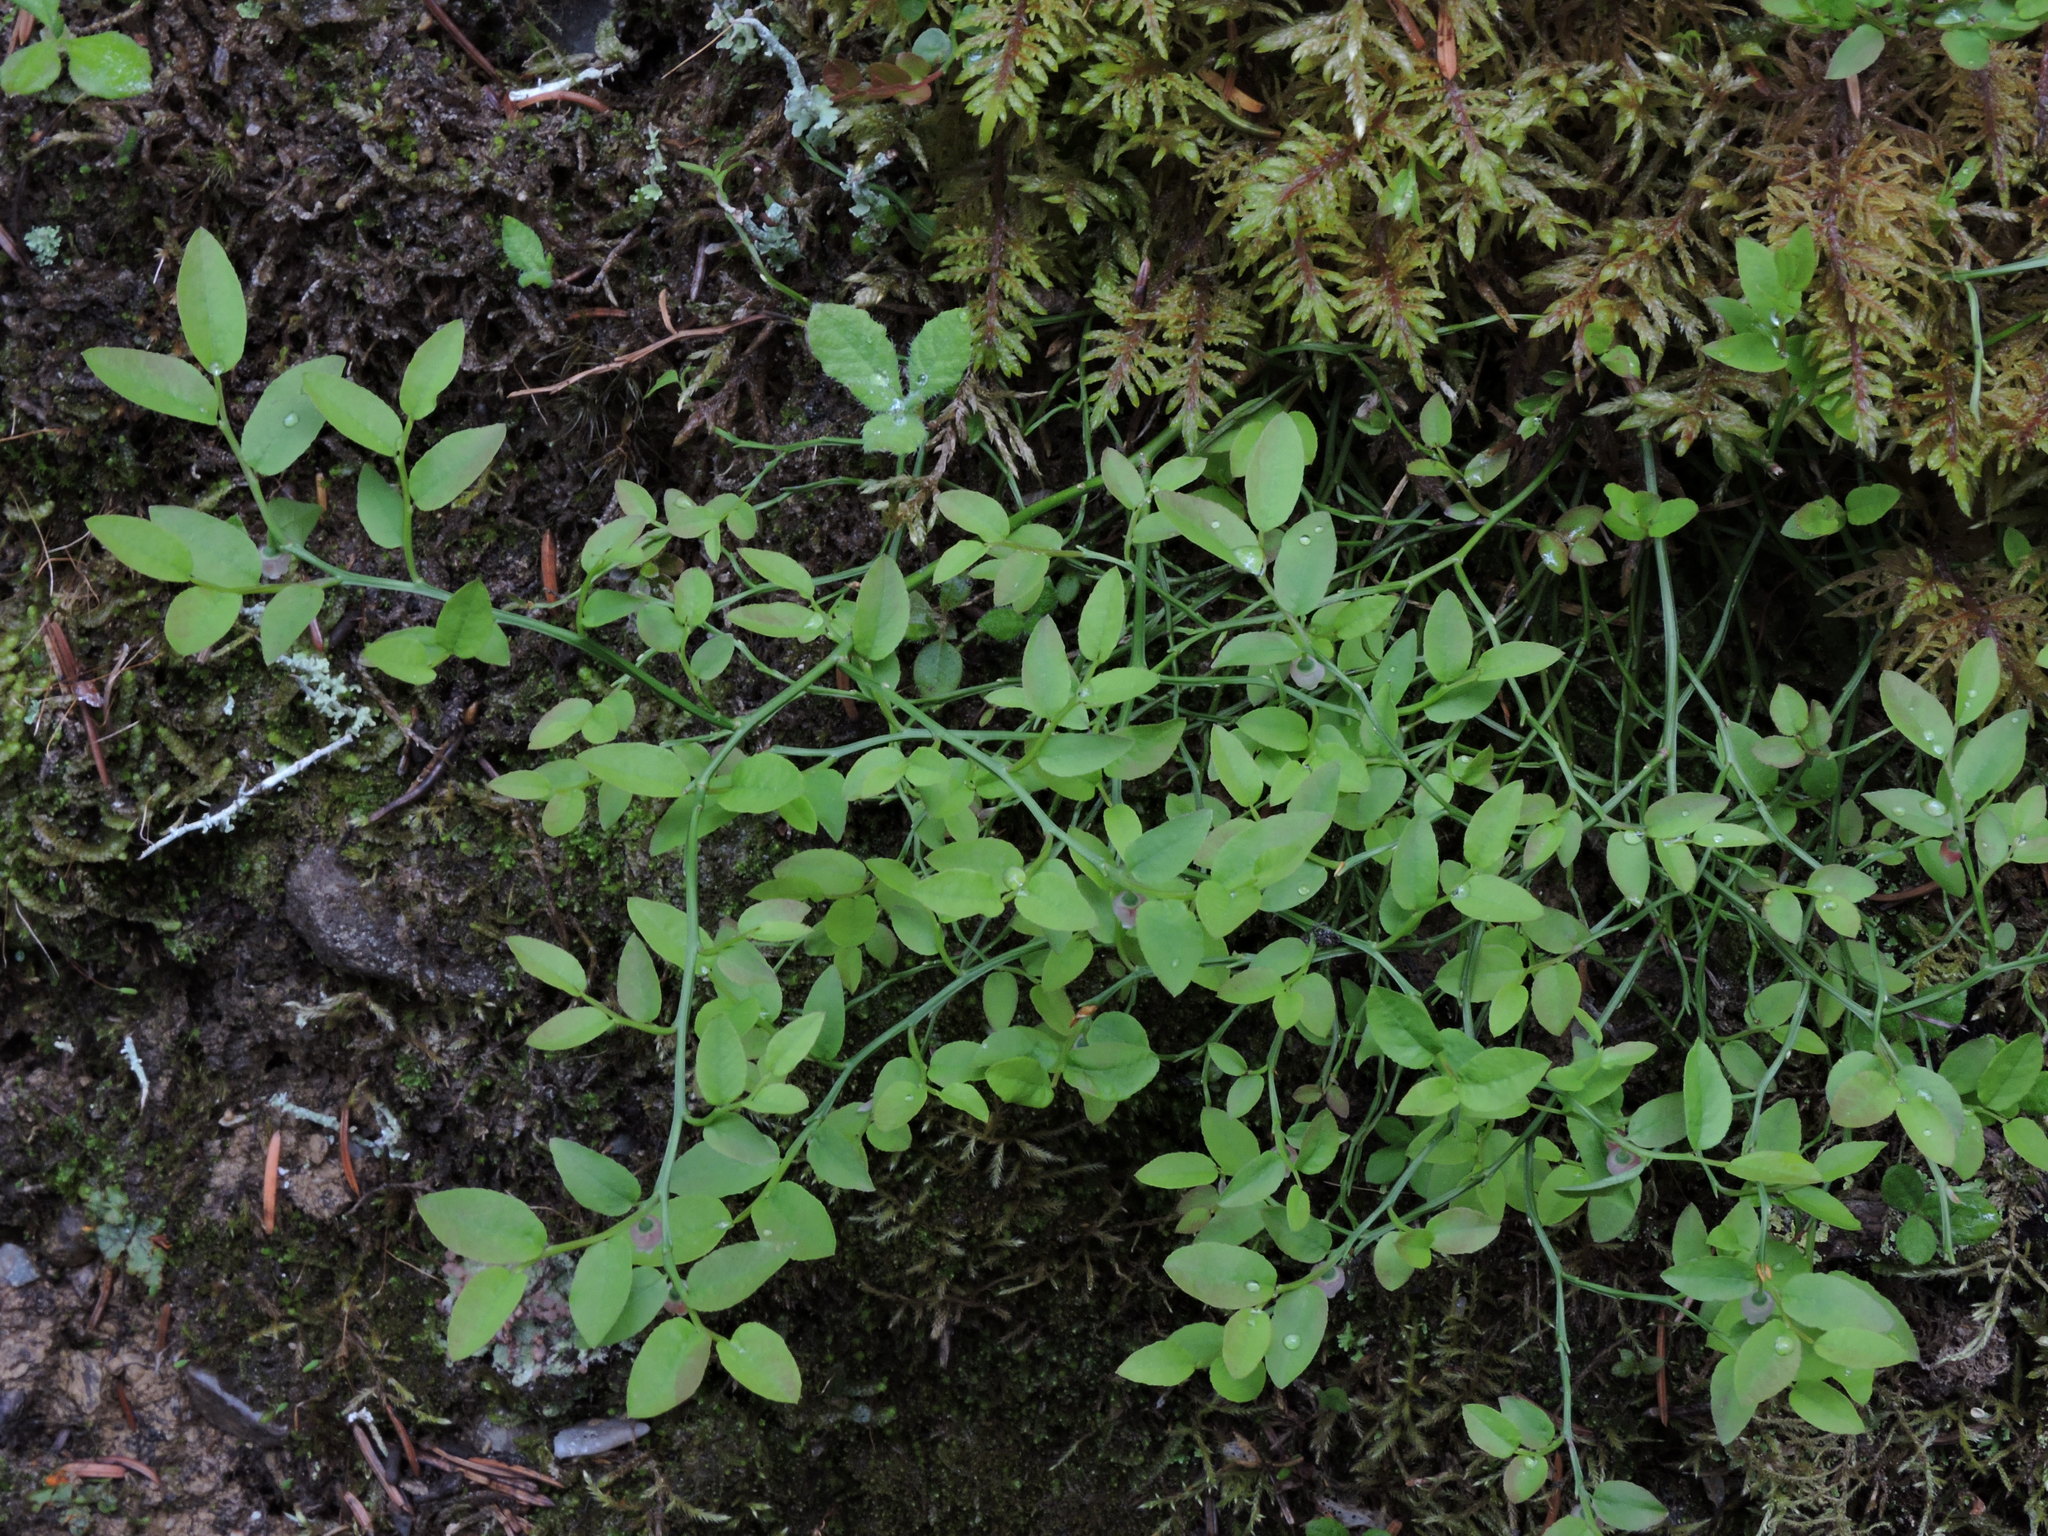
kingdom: Plantae
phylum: Tracheophyta
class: Magnoliopsida
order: Ericales
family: Ericaceae
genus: Vaccinium
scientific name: Vaccinium myrtillus
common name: Bilberry
